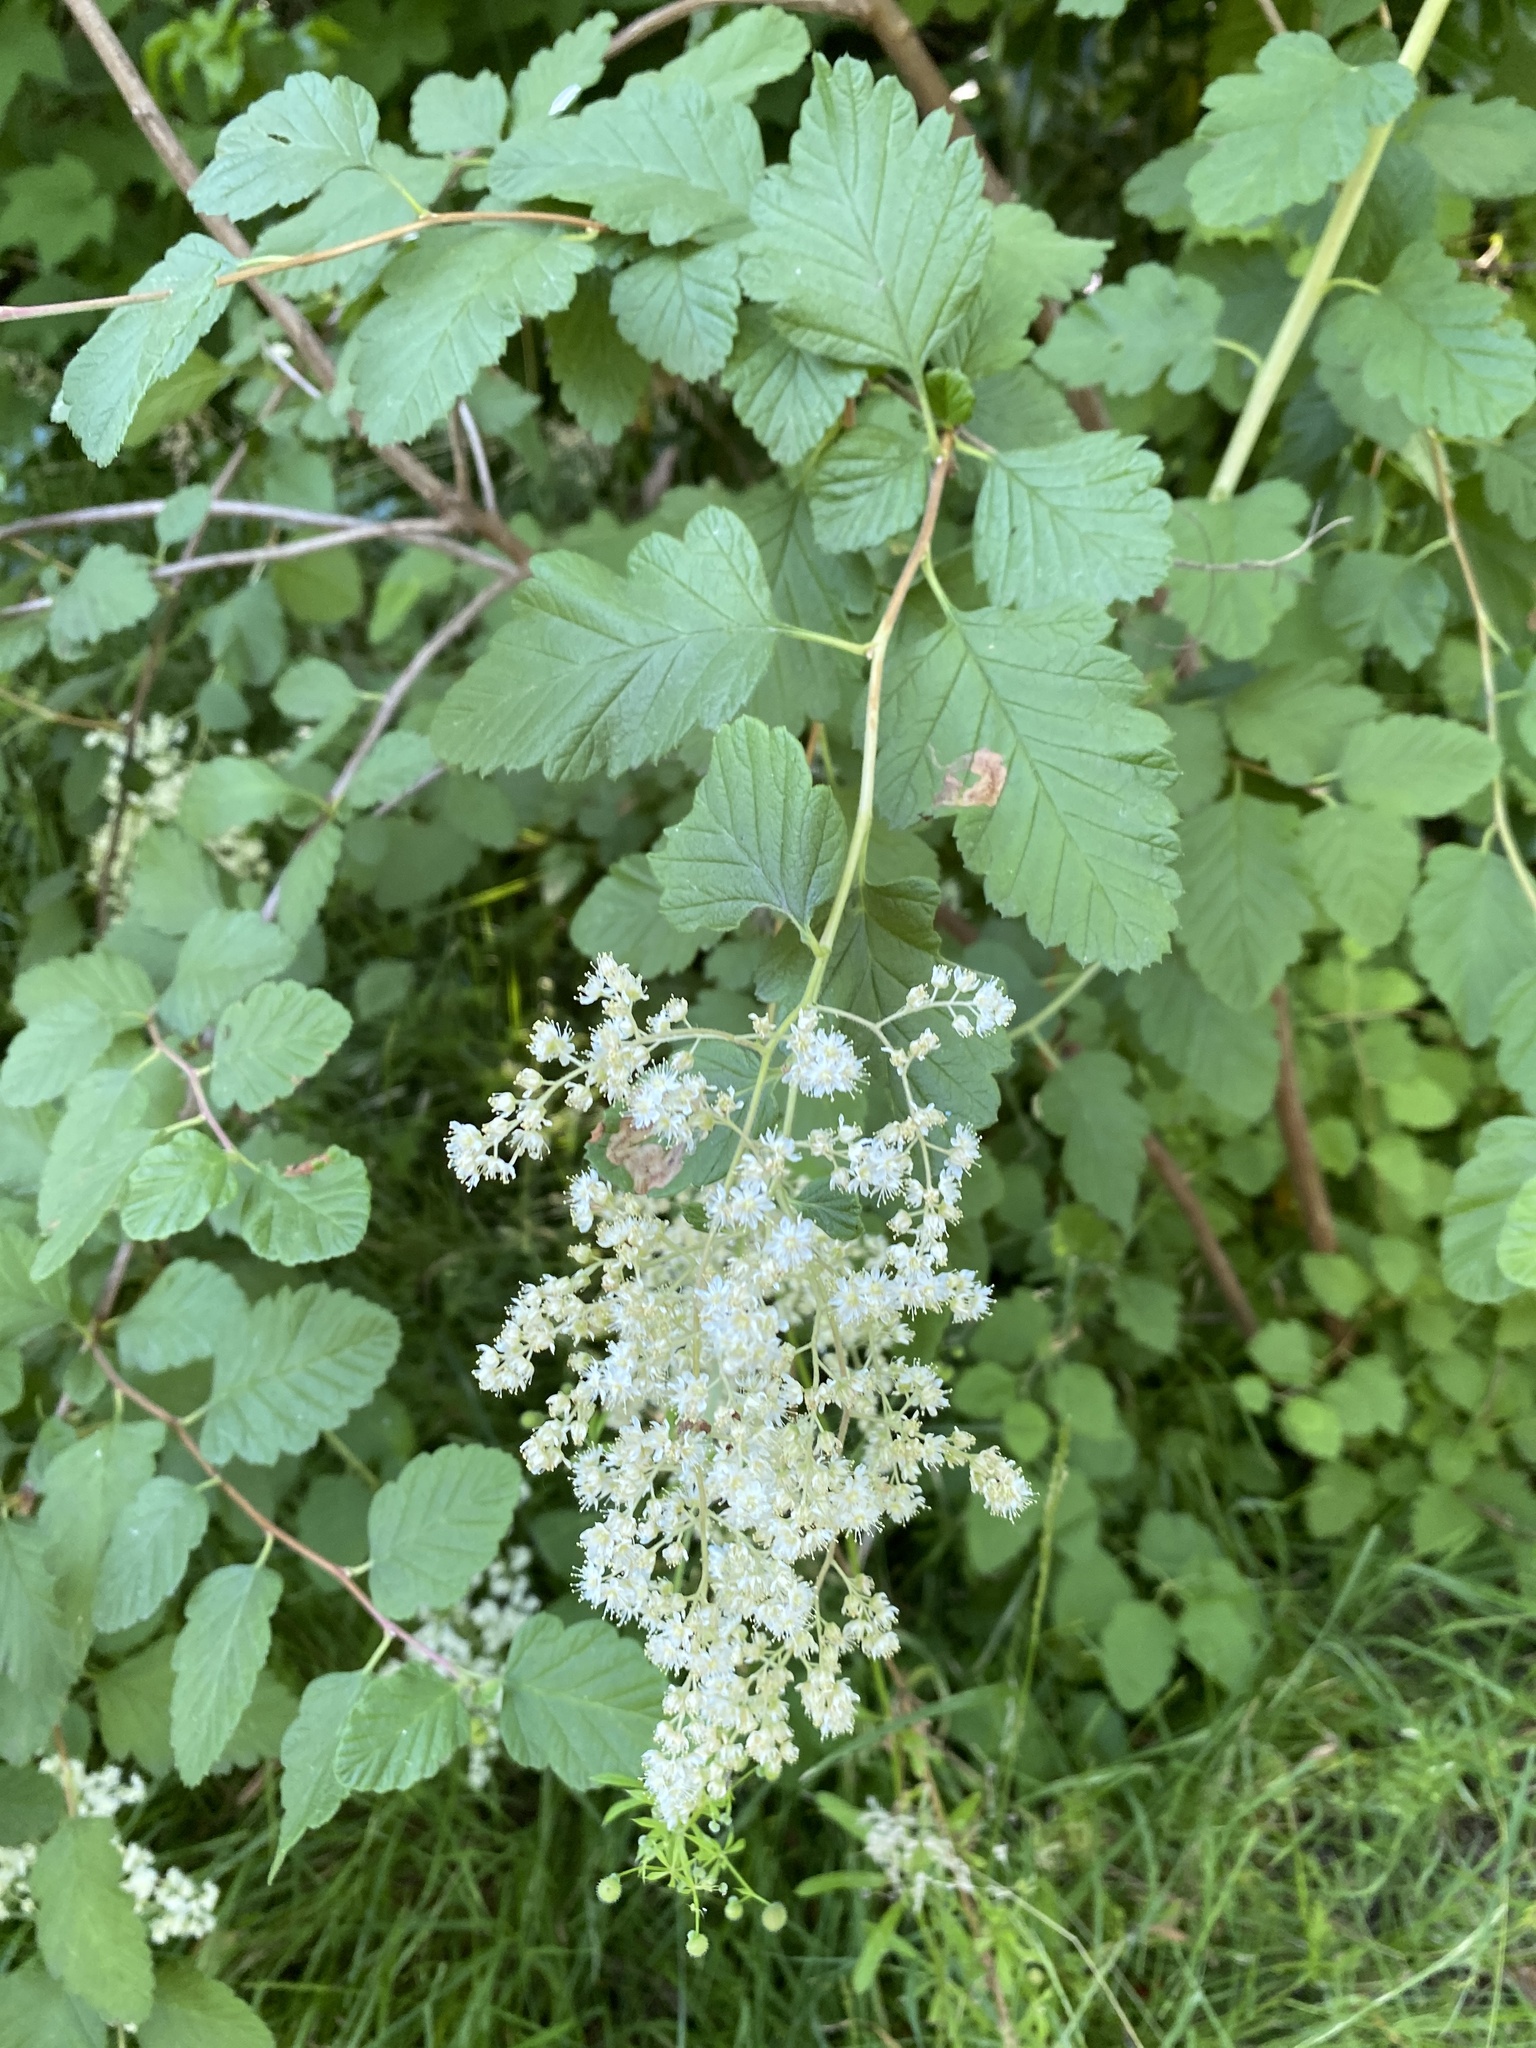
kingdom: Plantae
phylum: Tracheophyta
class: Magnoliopsida
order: Rosales
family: Rosaceae
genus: Holodiscus
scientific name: Holodiscus discolor
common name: Oceanspray
